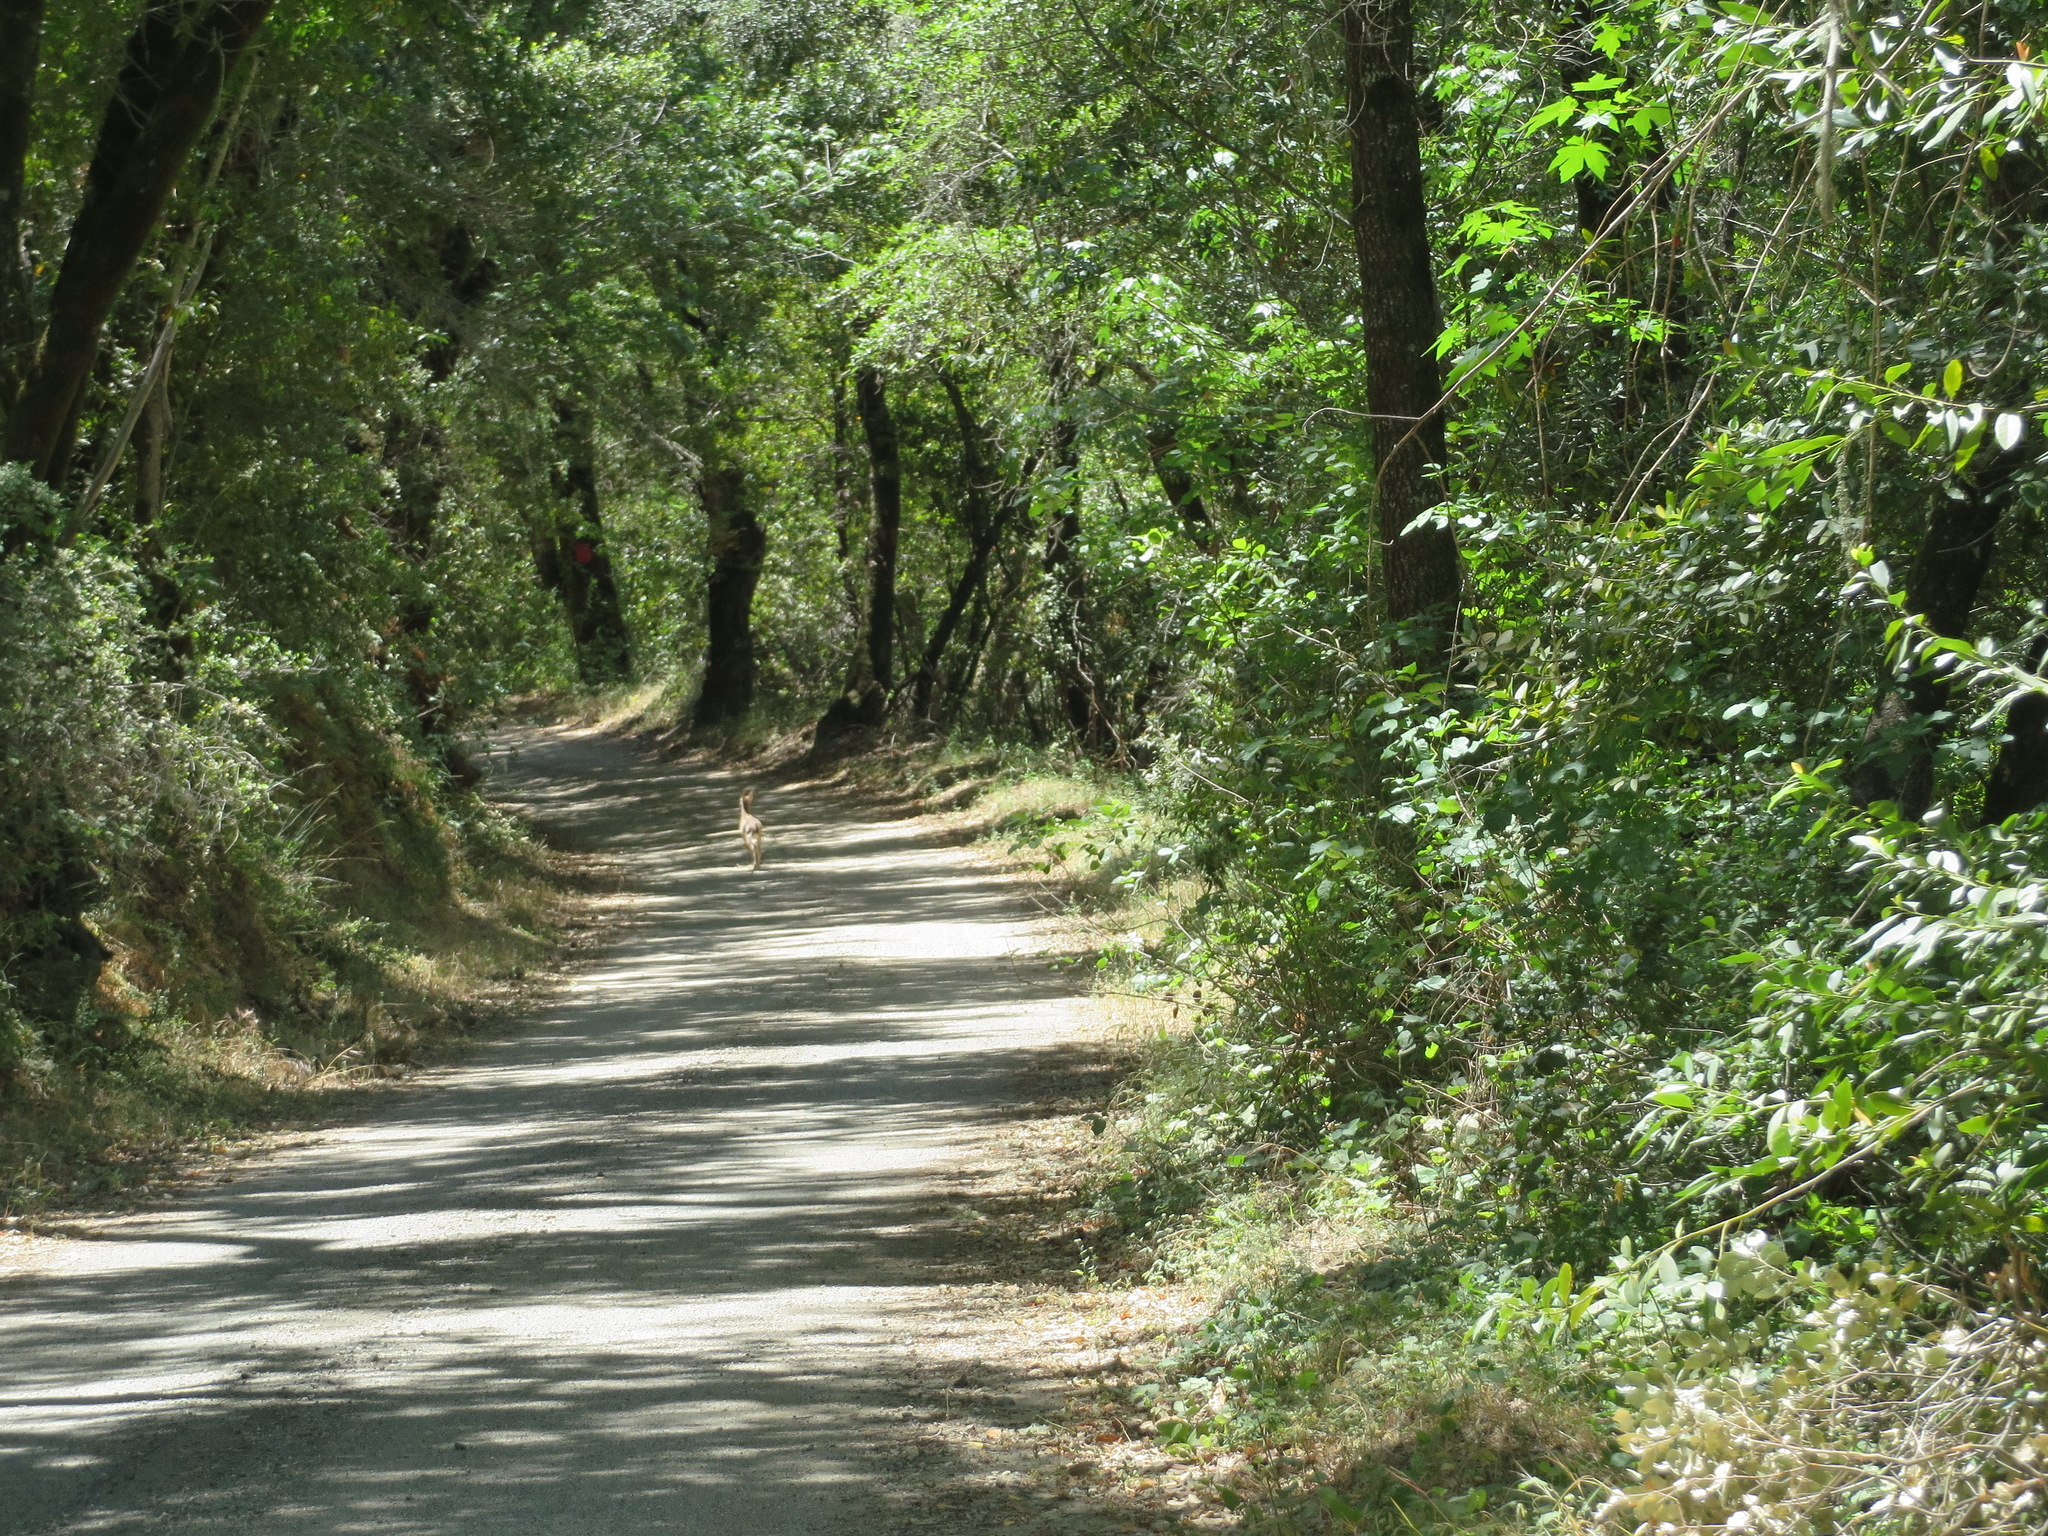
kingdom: Animalia
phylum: Chordata
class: Mammalia
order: Artiodactyla
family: Cervidae
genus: Odocoileus
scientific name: Odocoileus hemionus
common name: Mule deer
